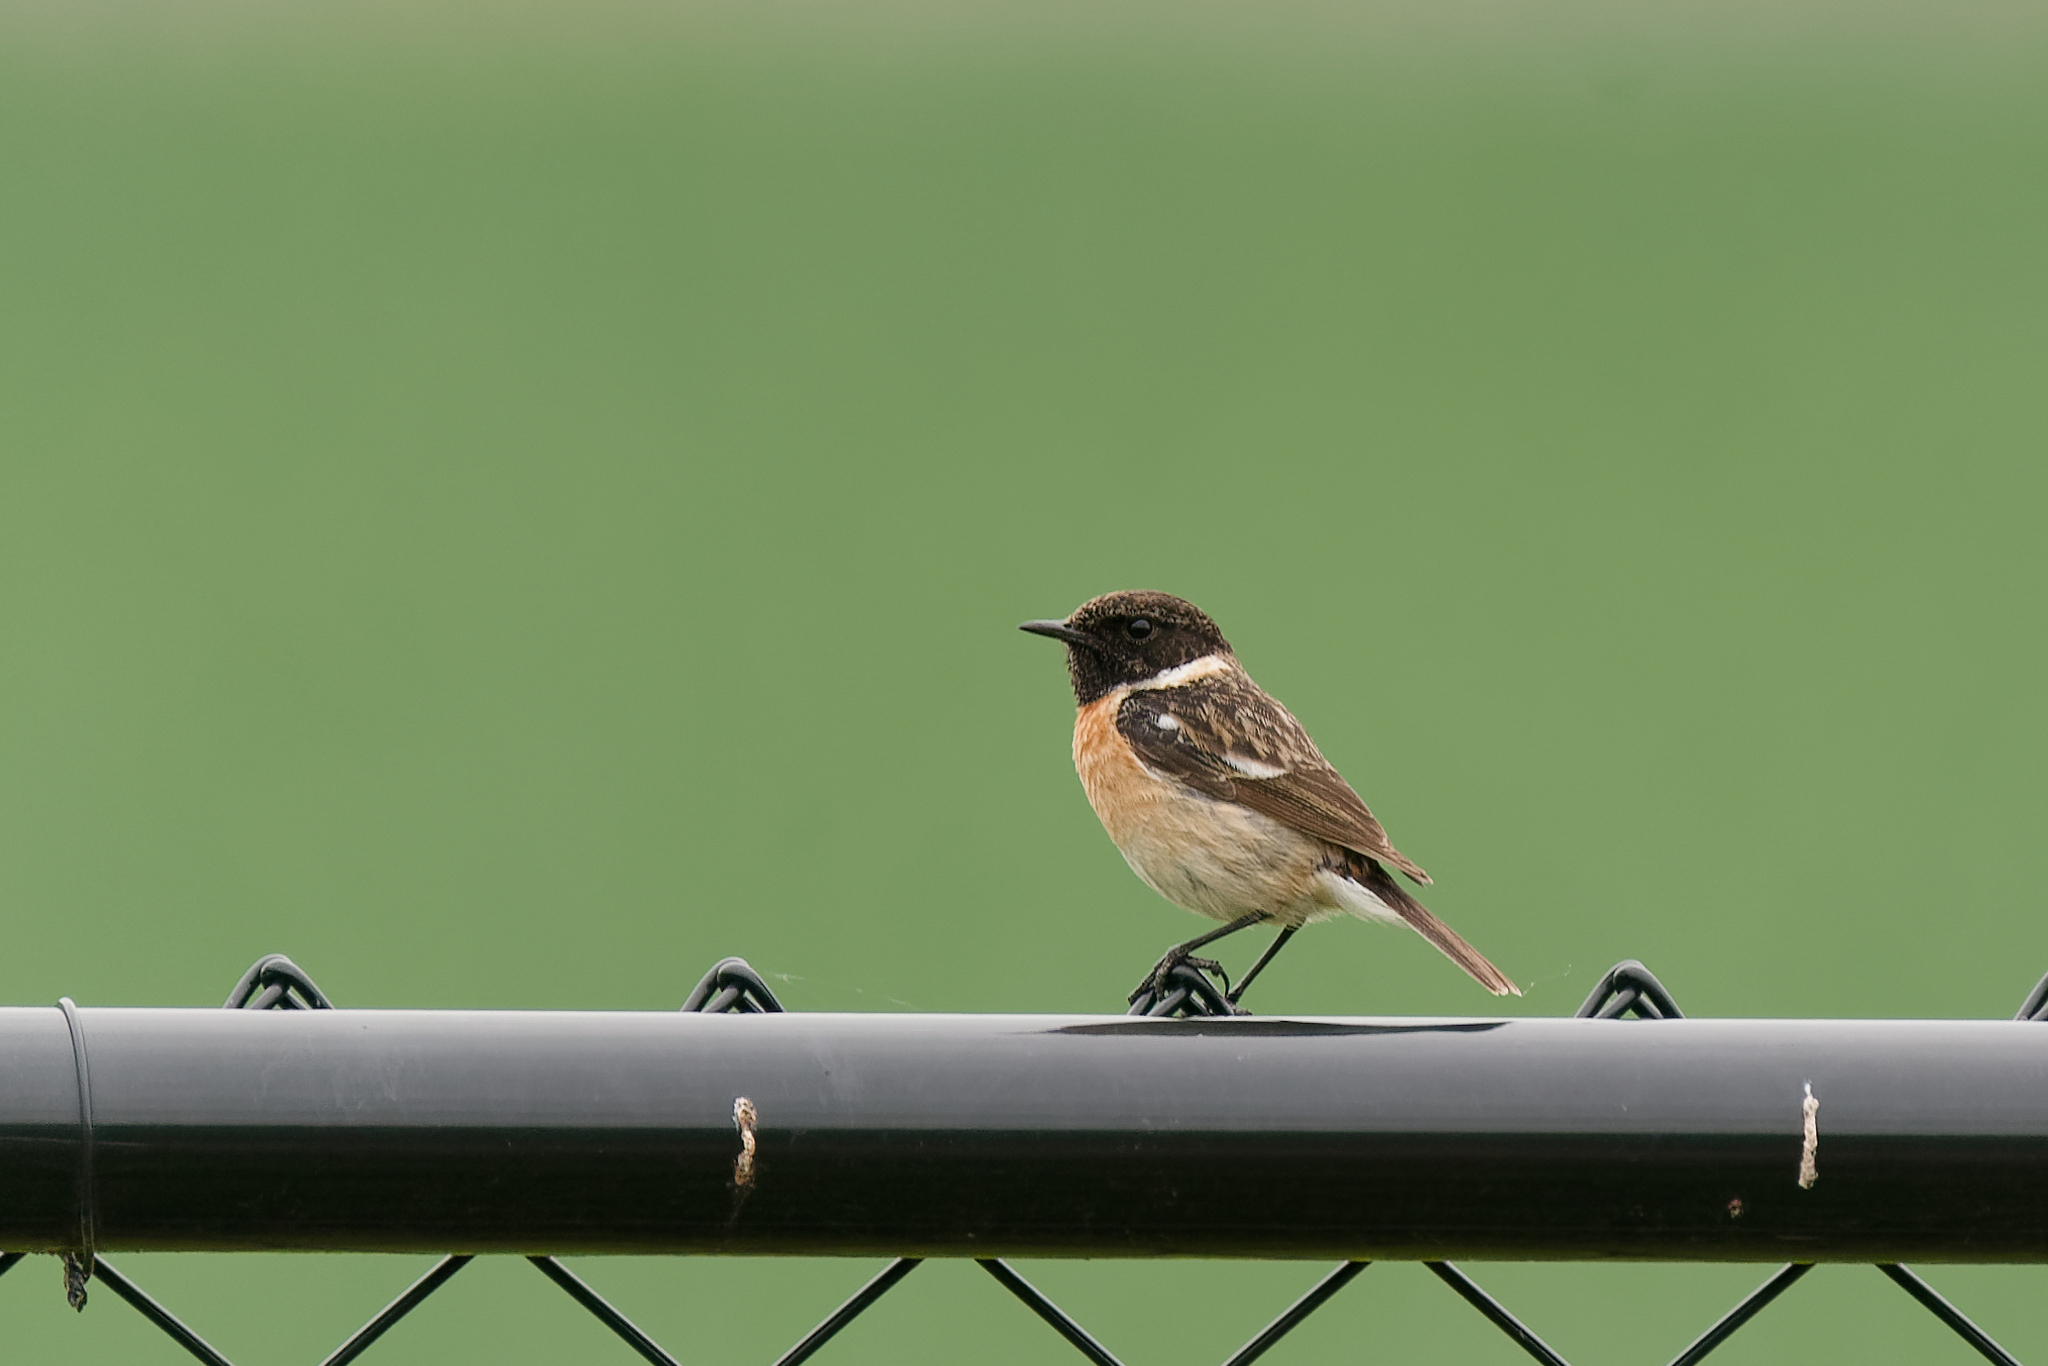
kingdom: Animalia
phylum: Chordata
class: Aves
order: Passeriformes
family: Muscicapidae
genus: Saxicola
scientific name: Saxicola rubicola
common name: European stonechat
